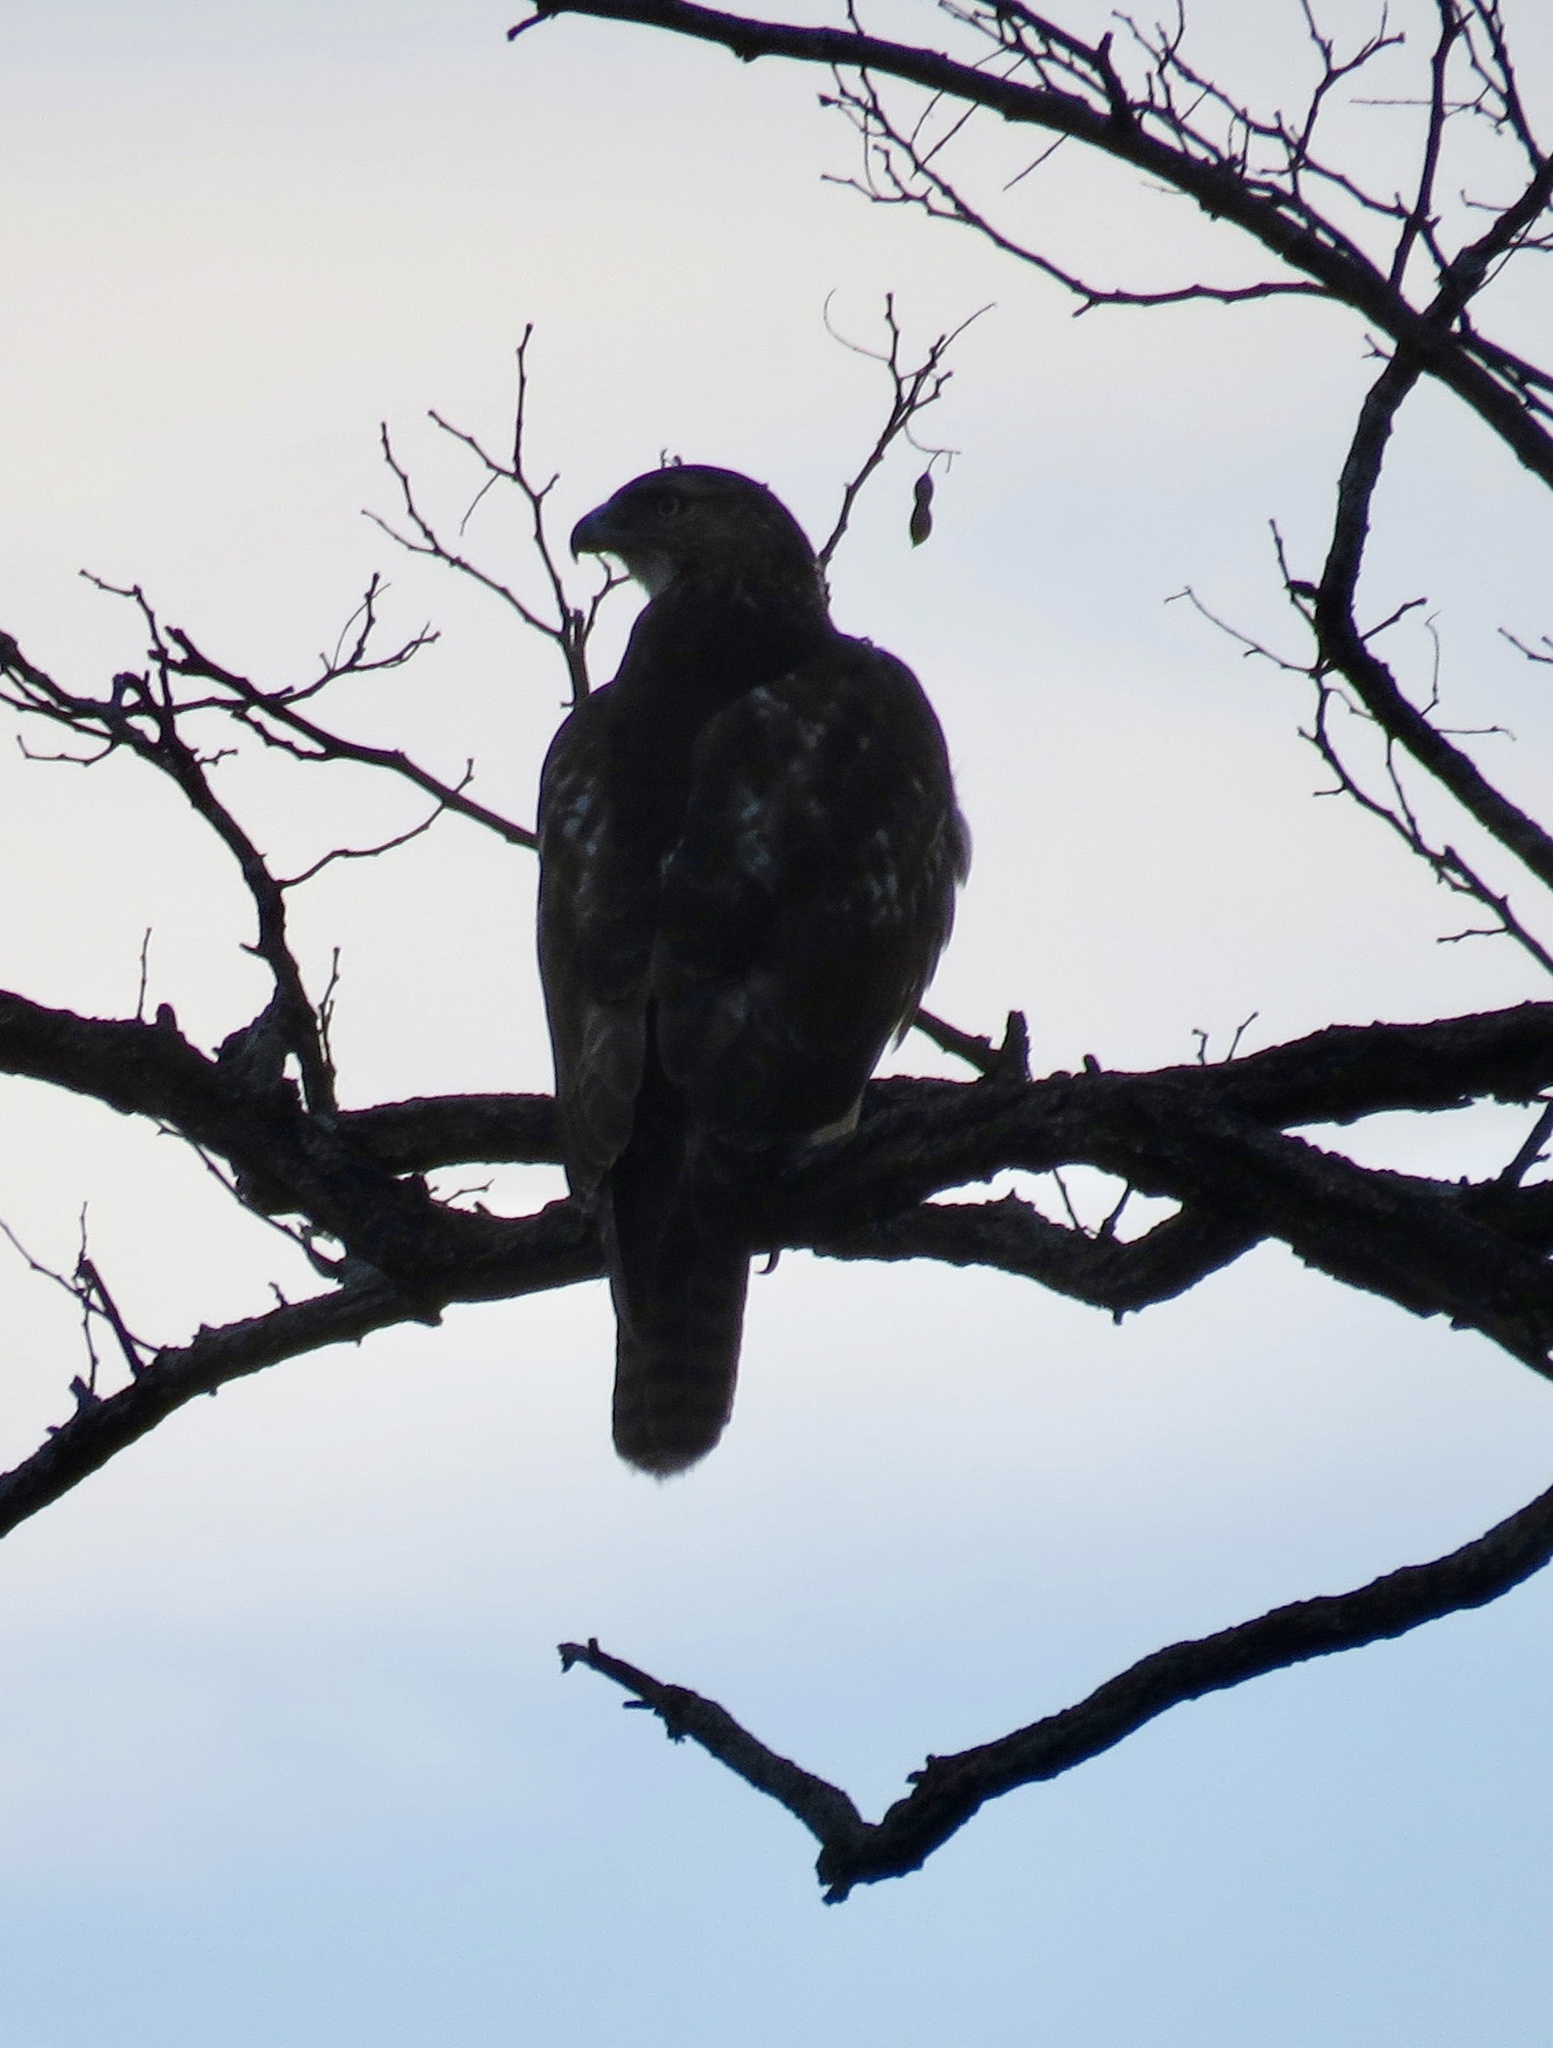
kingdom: Animalia
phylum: Chordata
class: Aves
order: Accipitriformes
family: Accipitridae
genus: Buteo
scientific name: Buteo jamaicensis
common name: Red-tailed hawk
